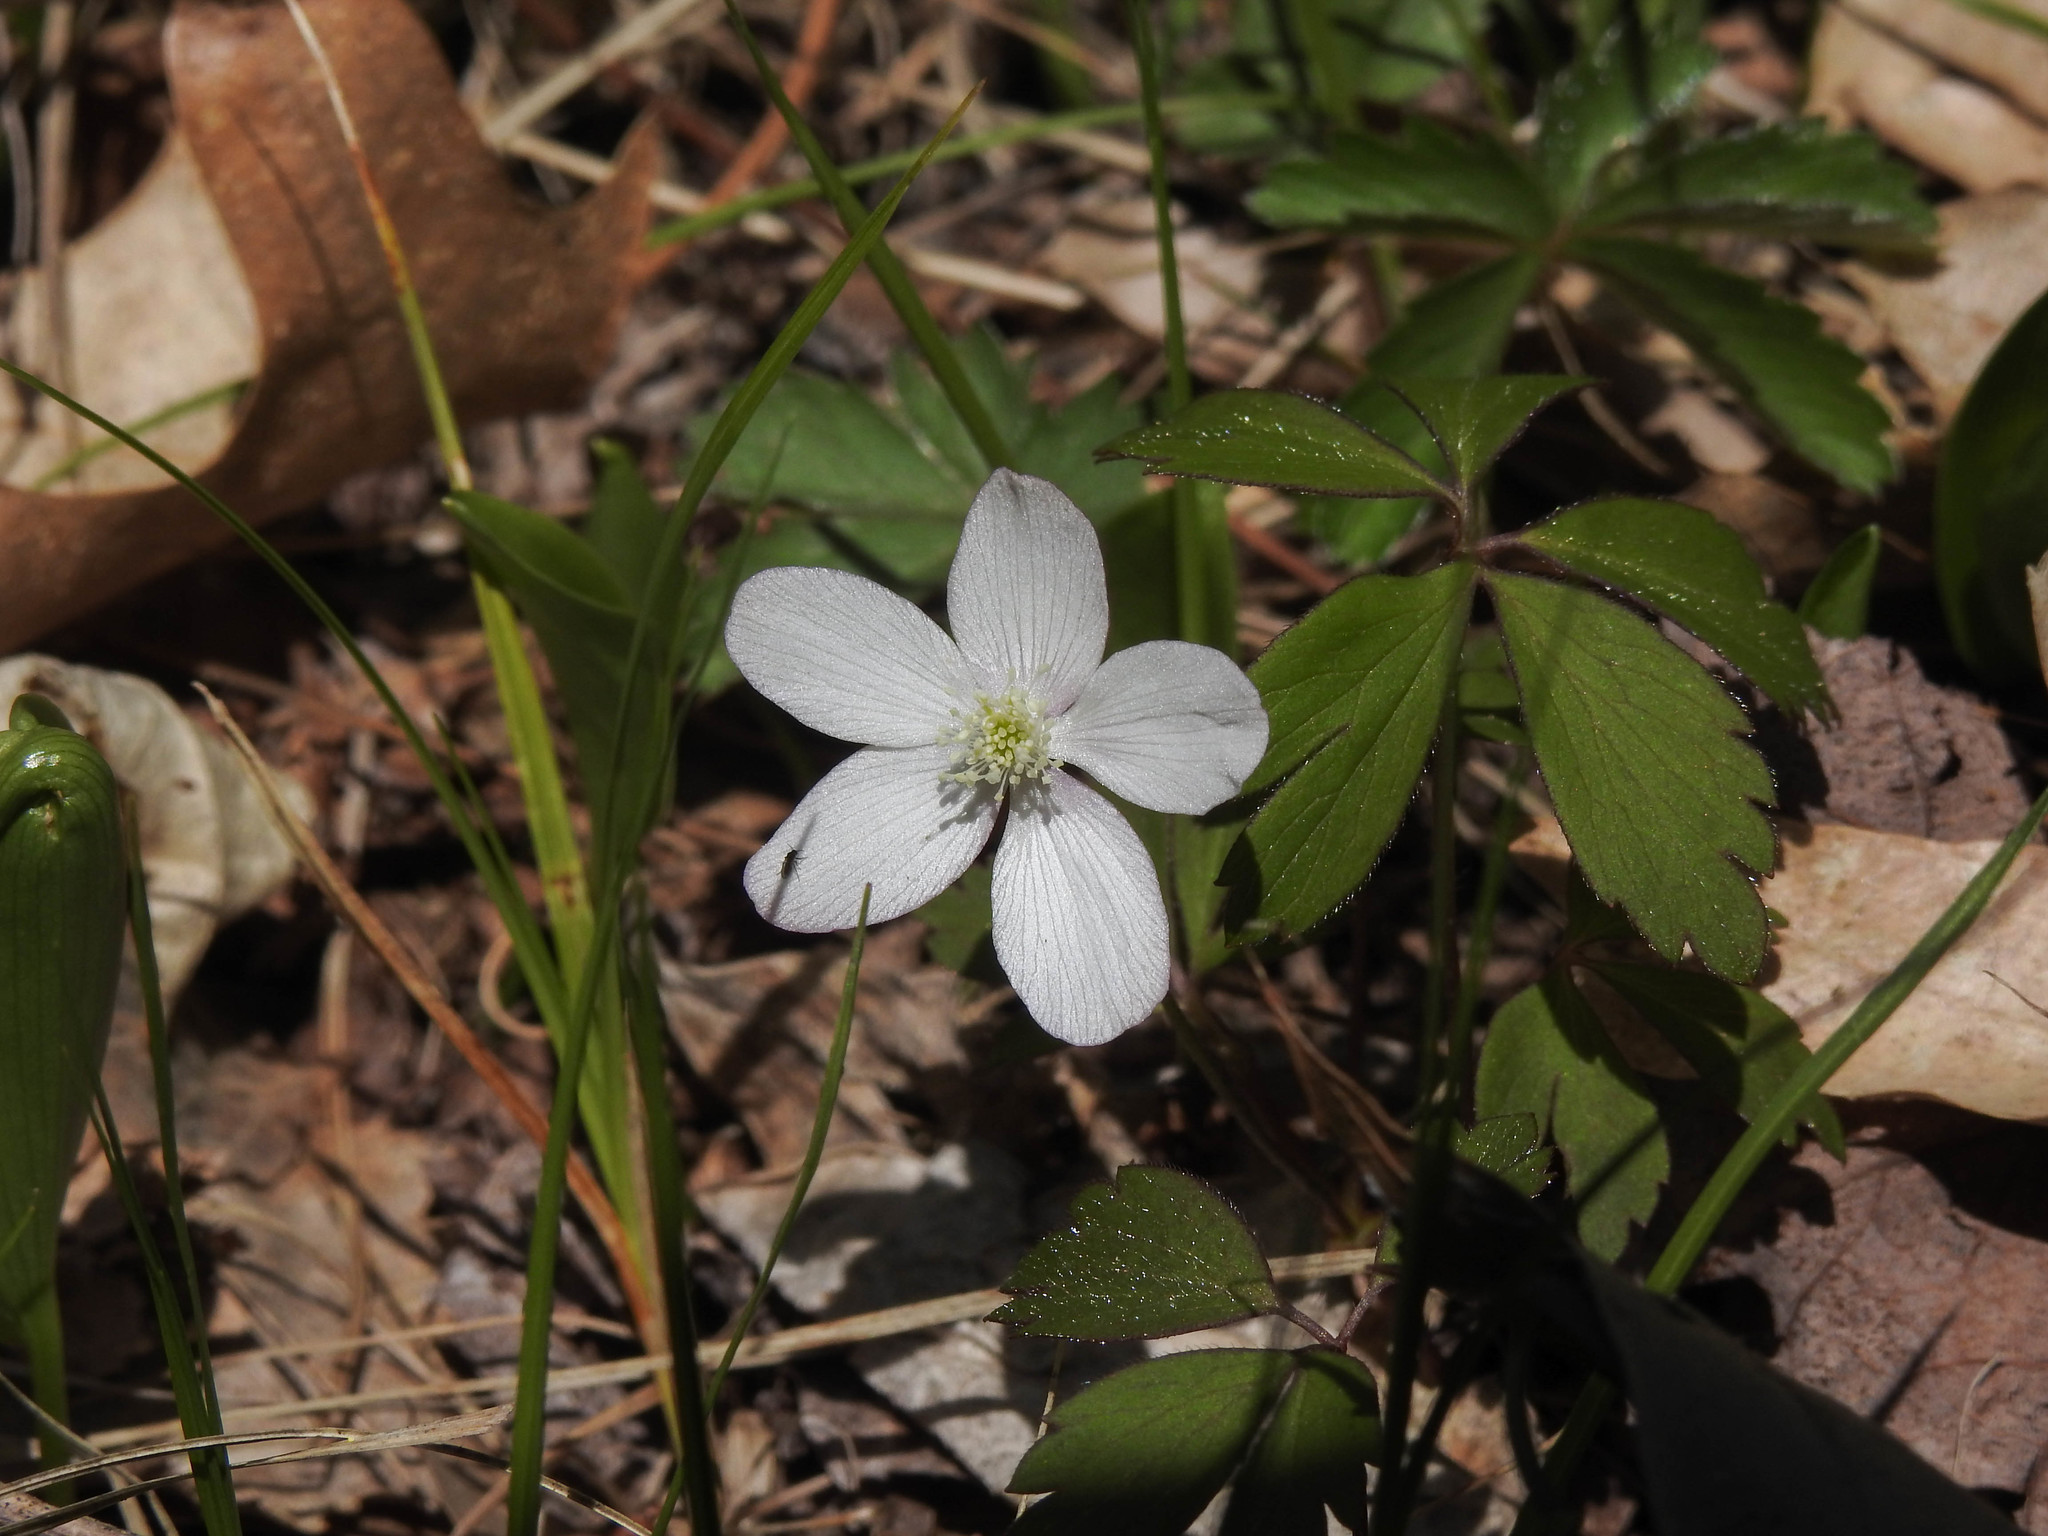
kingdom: Plantae
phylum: Tracheophyta
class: Magnoliopsida
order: Ranunculales
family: Ranunculaceae
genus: Anemone
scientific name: Anemone quinquefolia
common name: Wood anemone
